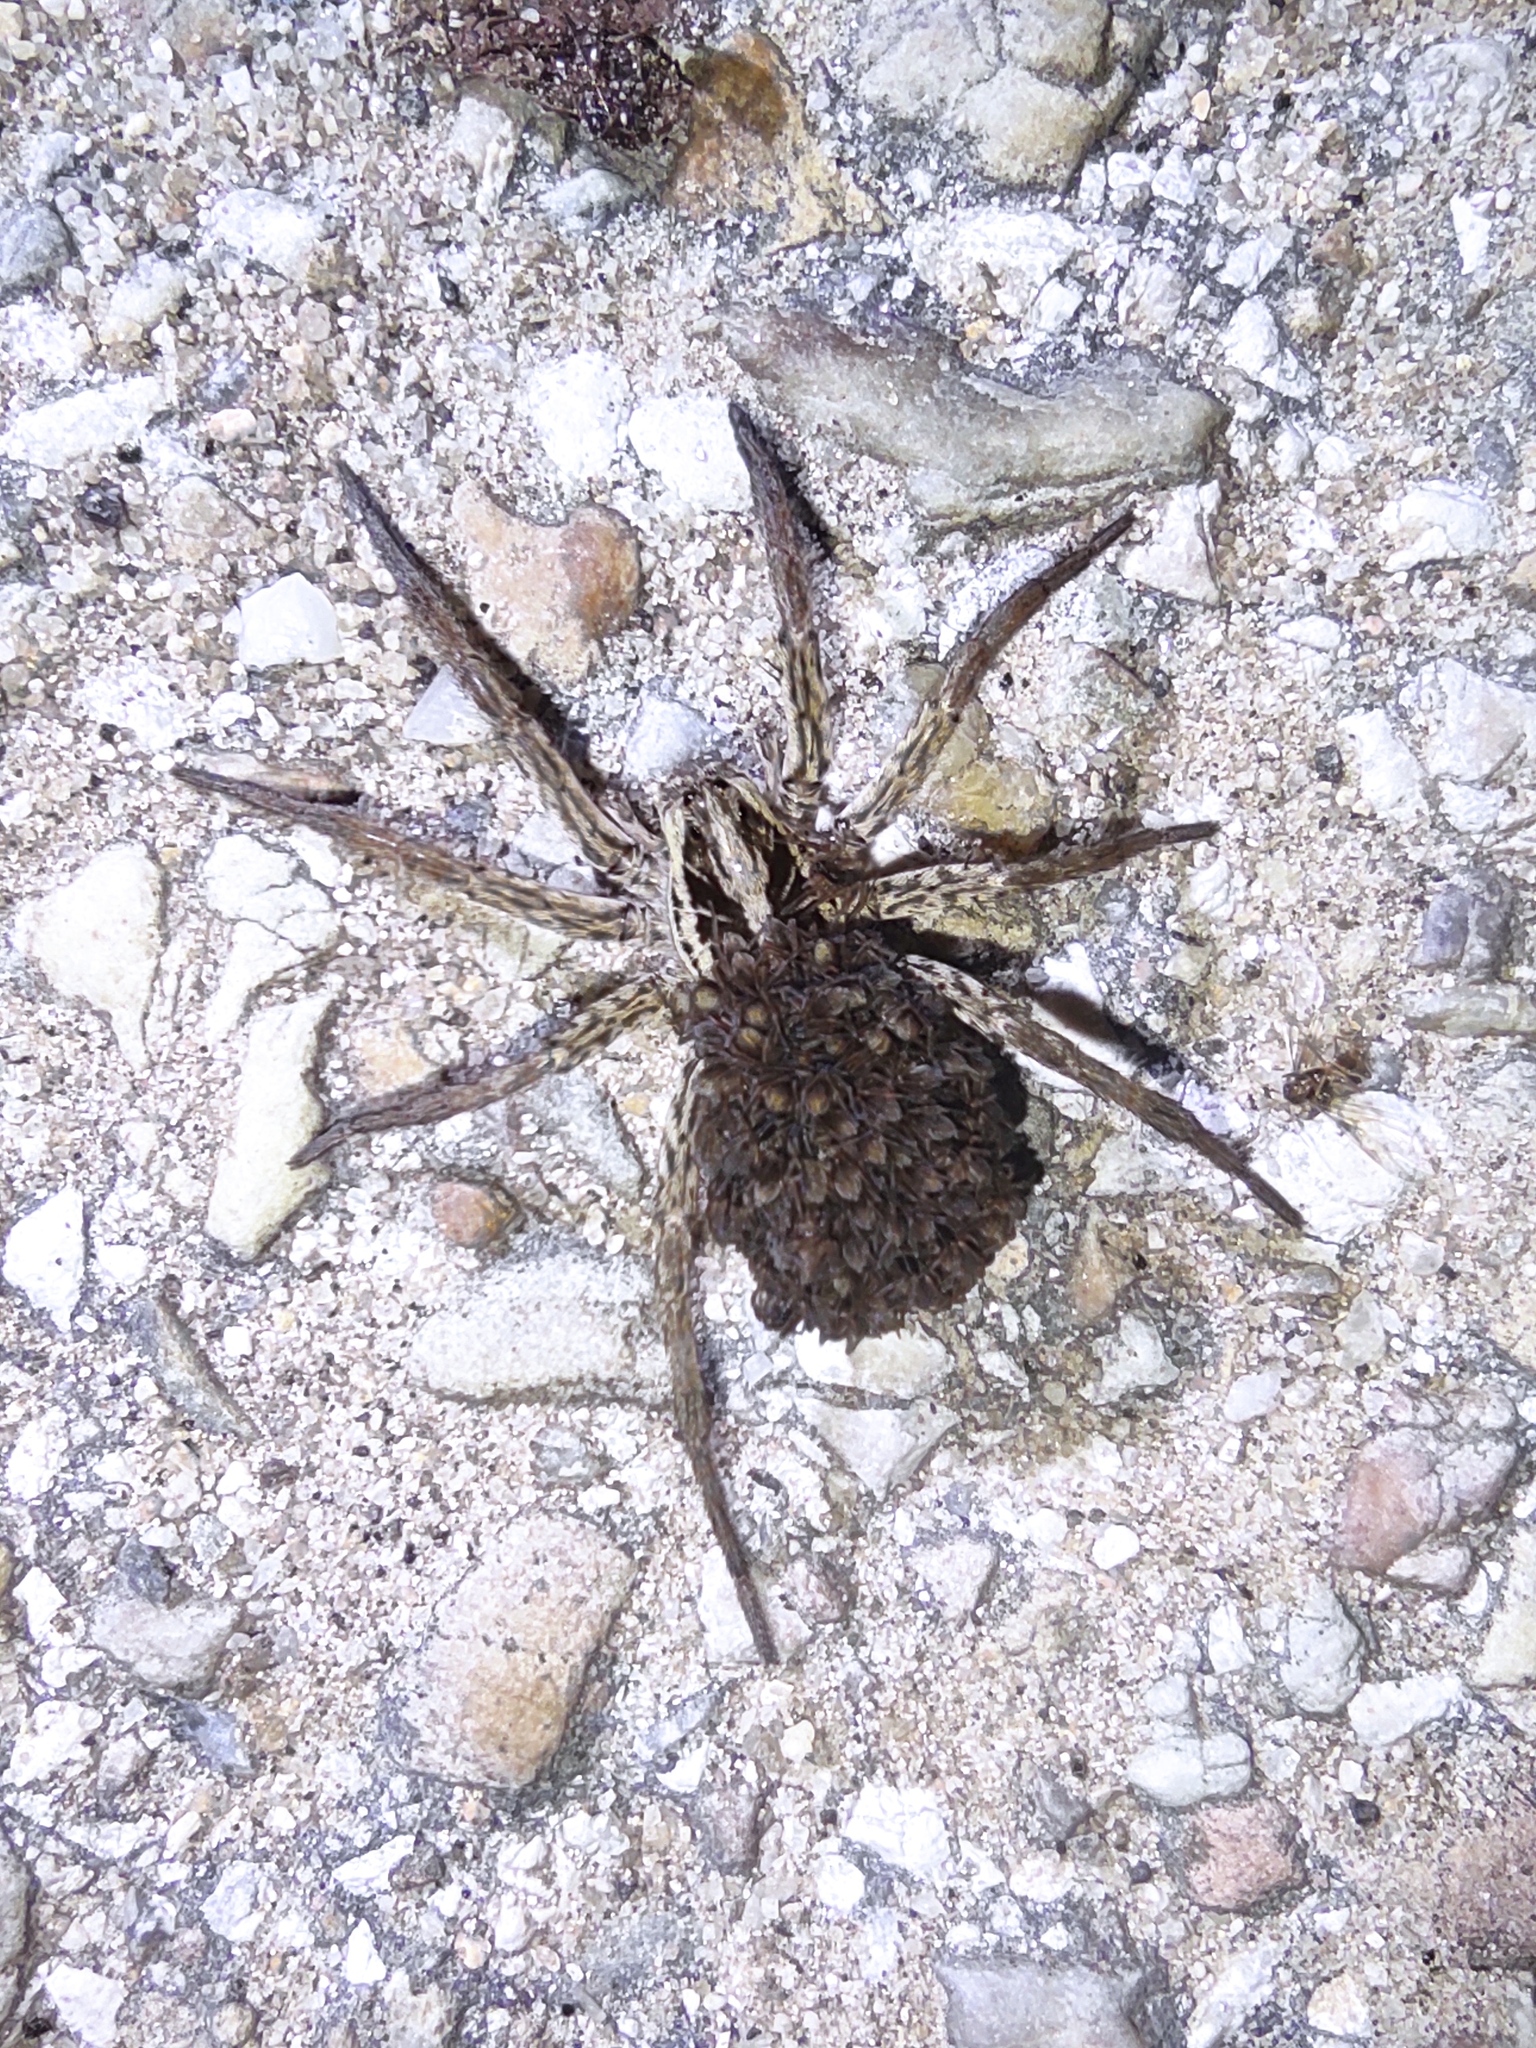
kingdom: Animalia
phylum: Arthropoda
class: Arachnida
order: Araneae
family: Lycosidae
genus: Hogna
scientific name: Hogna radiata
